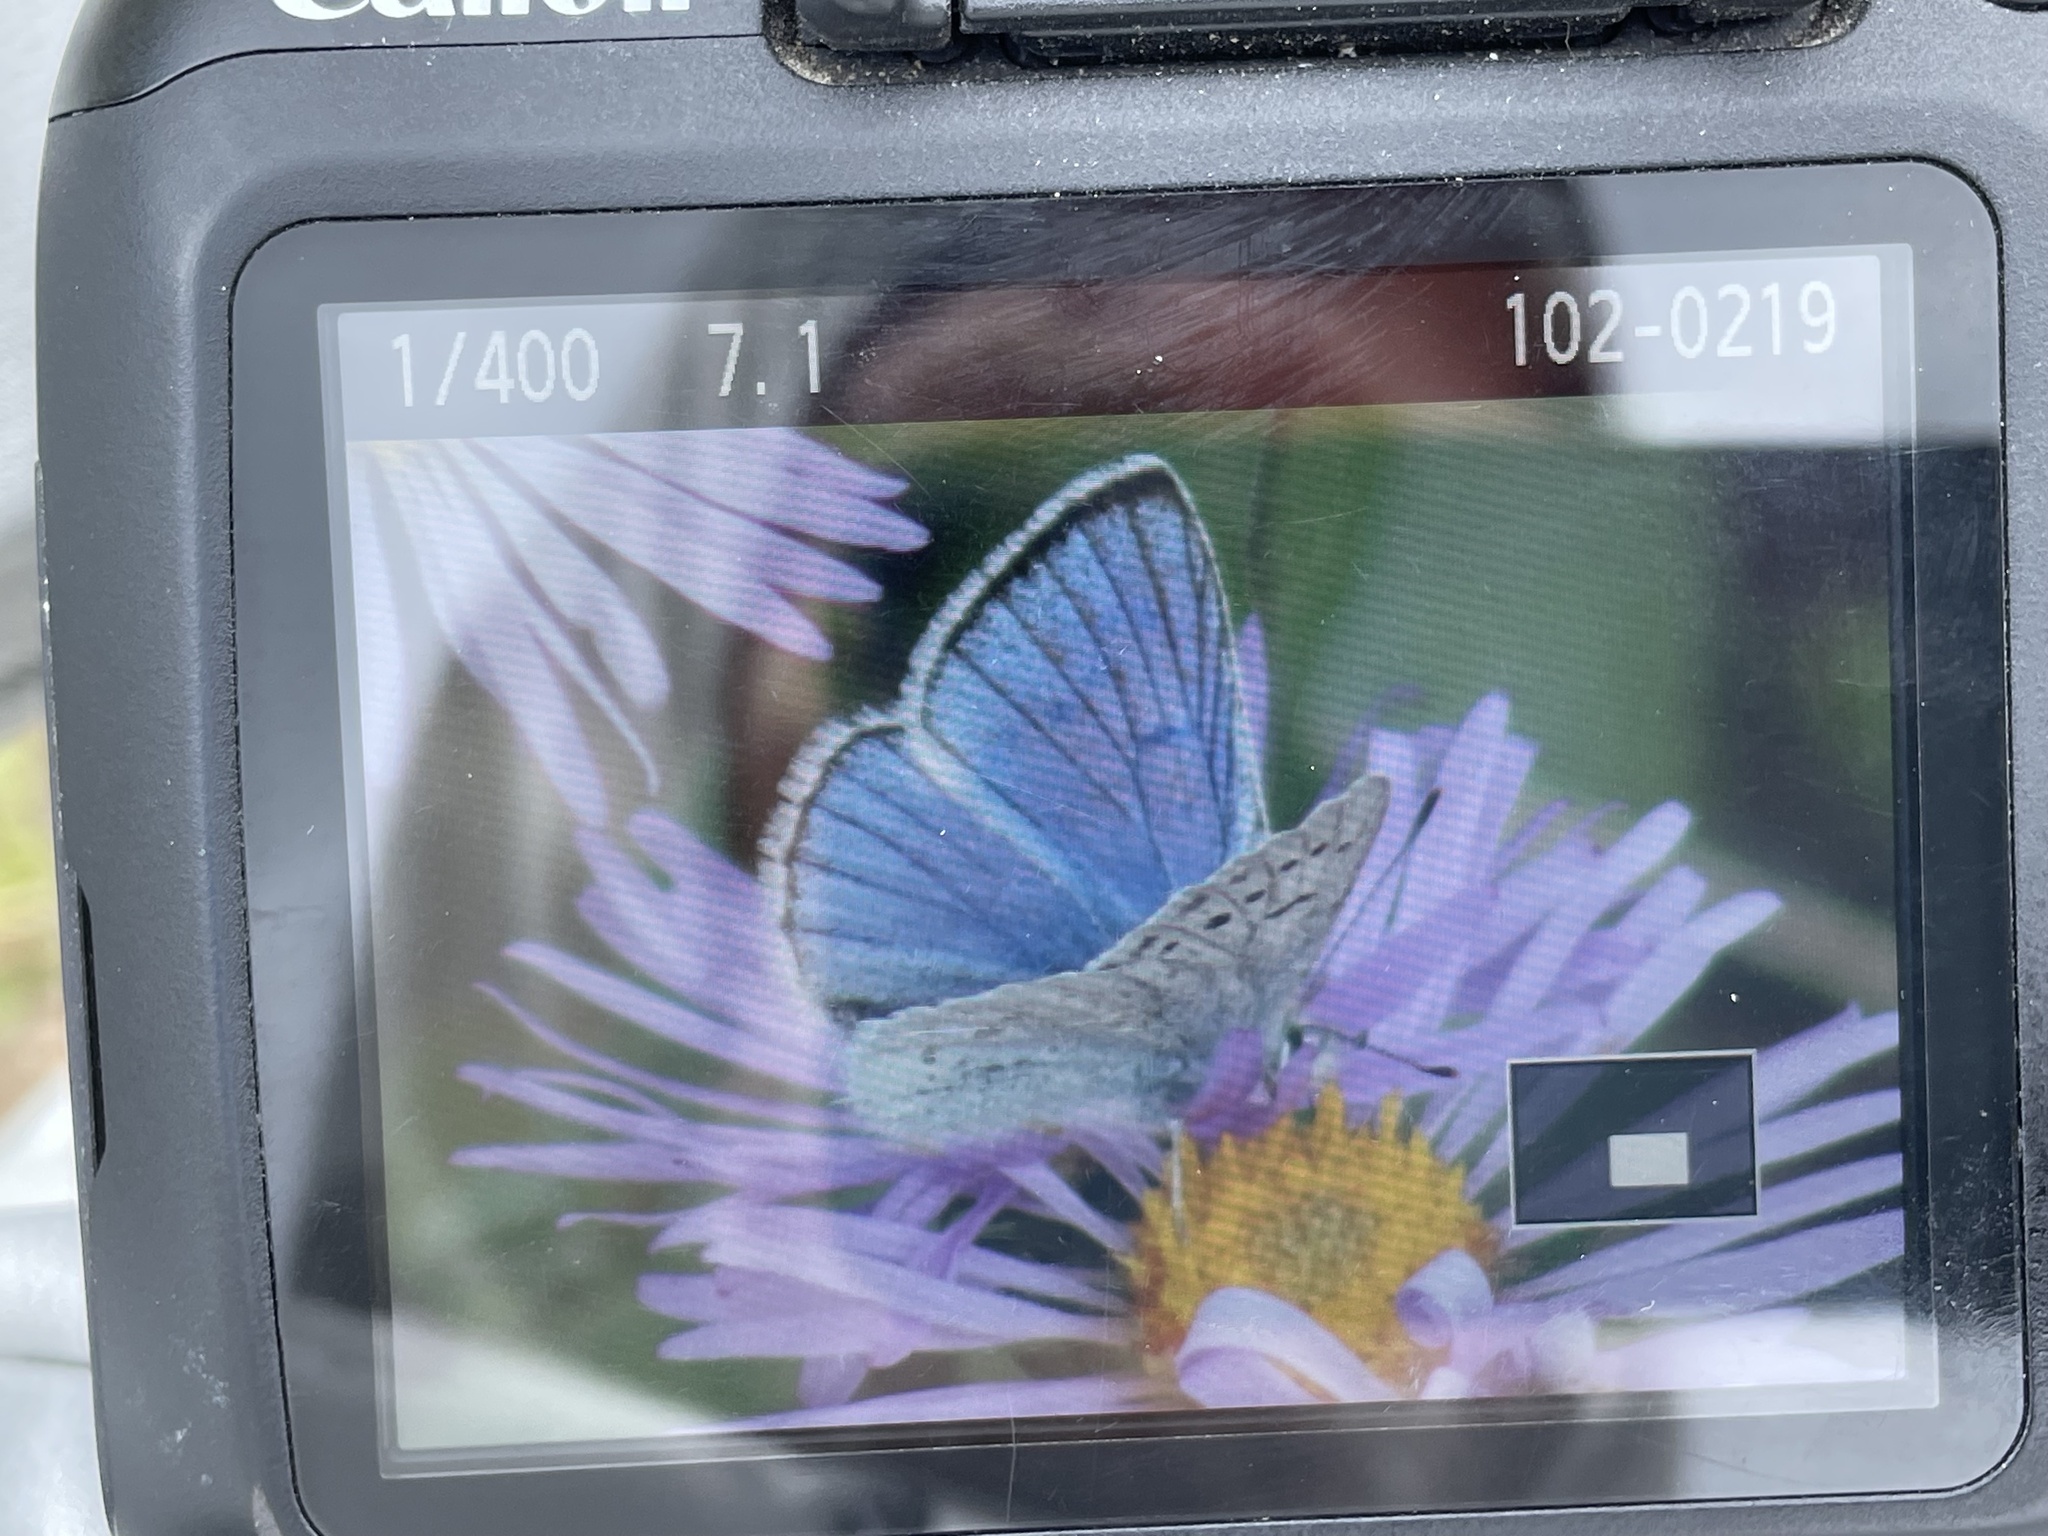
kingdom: Animalia
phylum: Arthropoda
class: Insecta
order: Lepidoptera
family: Lycaenidae
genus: Tharsalea
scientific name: Tharsalea heteronea
